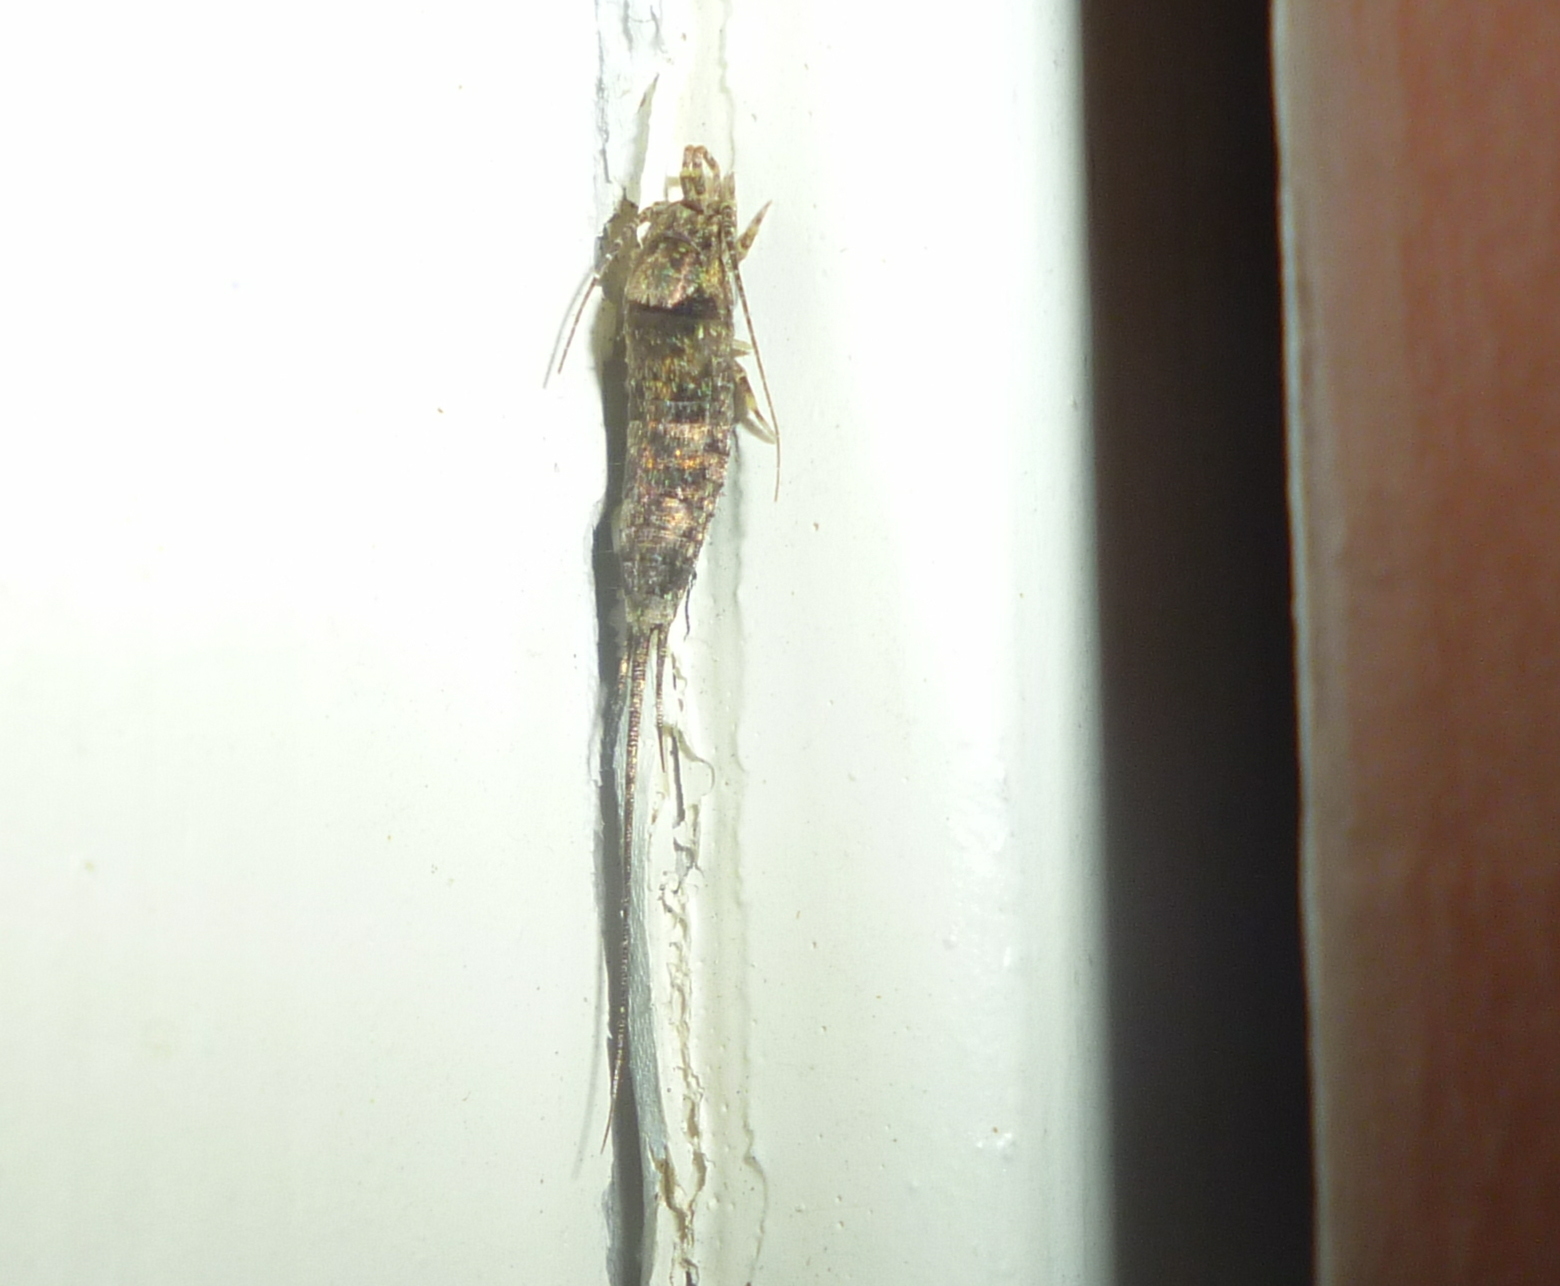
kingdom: Animalia
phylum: Arthropoda
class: Insecta
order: Archaeognatha
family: Machilidae
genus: Trigoniophthalmus
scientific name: Trigoniophthalmus alternatus
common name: Jumping bristletail
